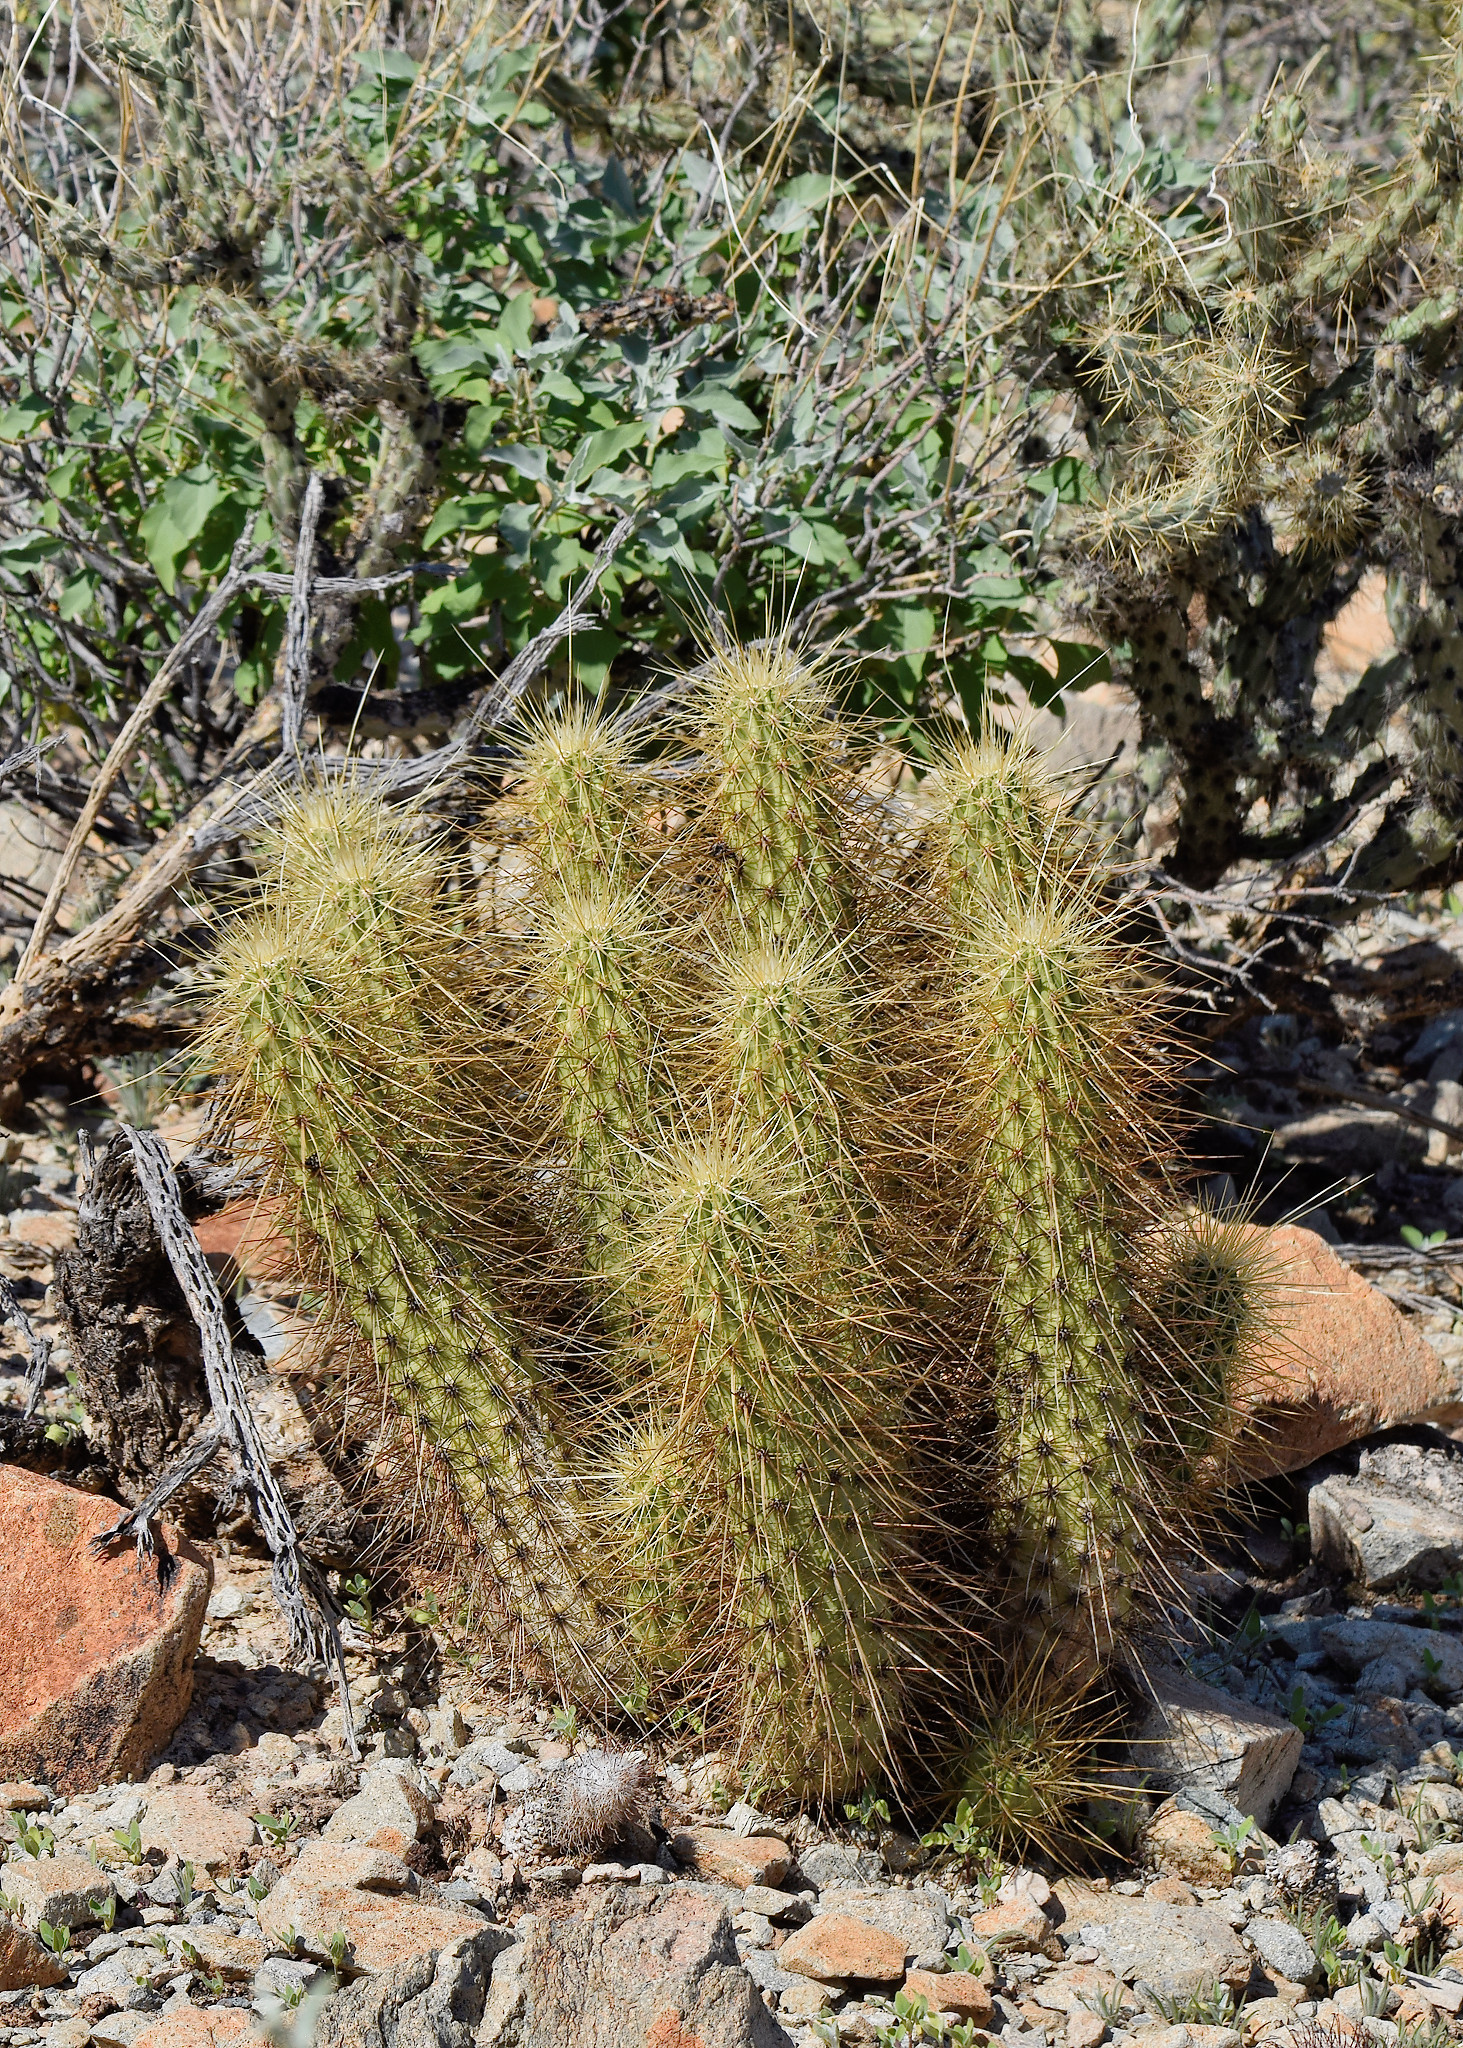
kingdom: Plantae
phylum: Tracheophyta
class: Magnoliopsida
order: Caryophyllales
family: Cactaceae
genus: Echinocereus
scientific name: Echinocereus nicholii
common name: Nichol's hedgehog cactus
